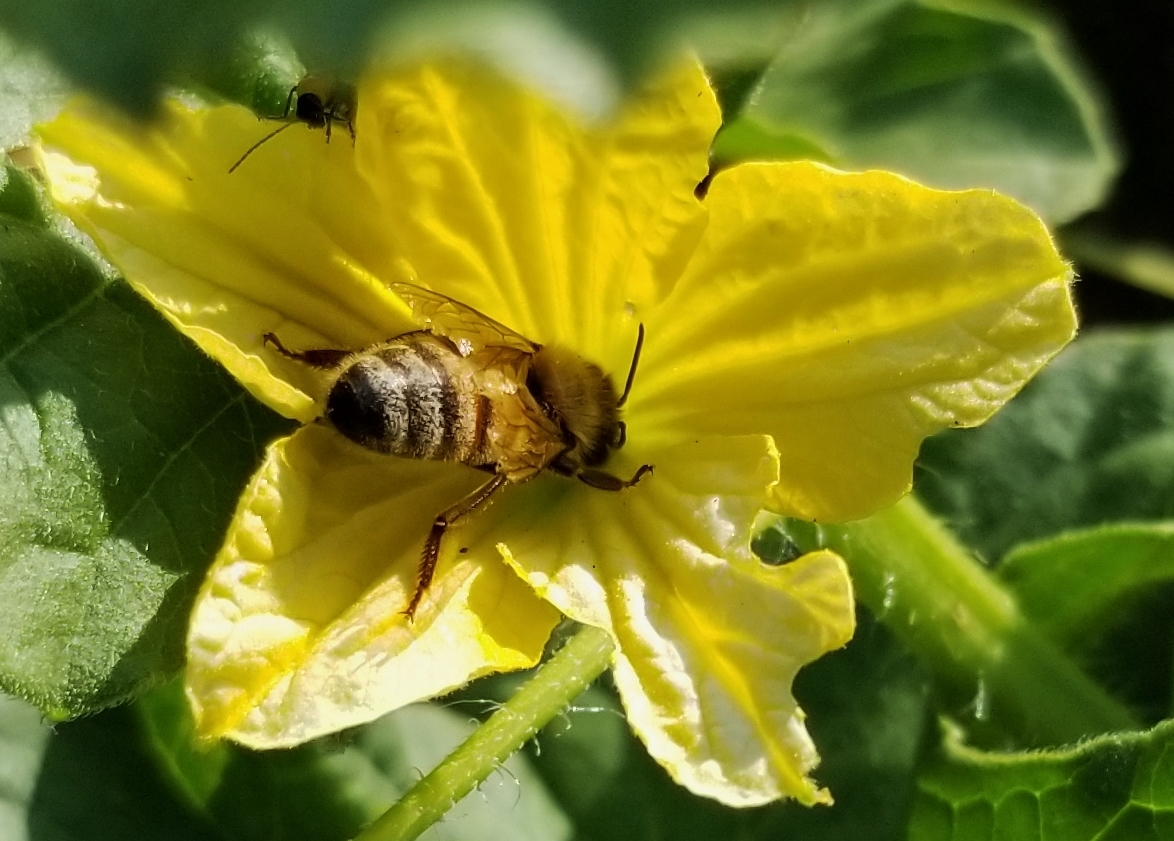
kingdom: Animalia
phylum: Arthropoda
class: Insecta
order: Hymenoptera
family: Apidae
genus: Apis
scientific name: Apis mellifera
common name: Honey bee
